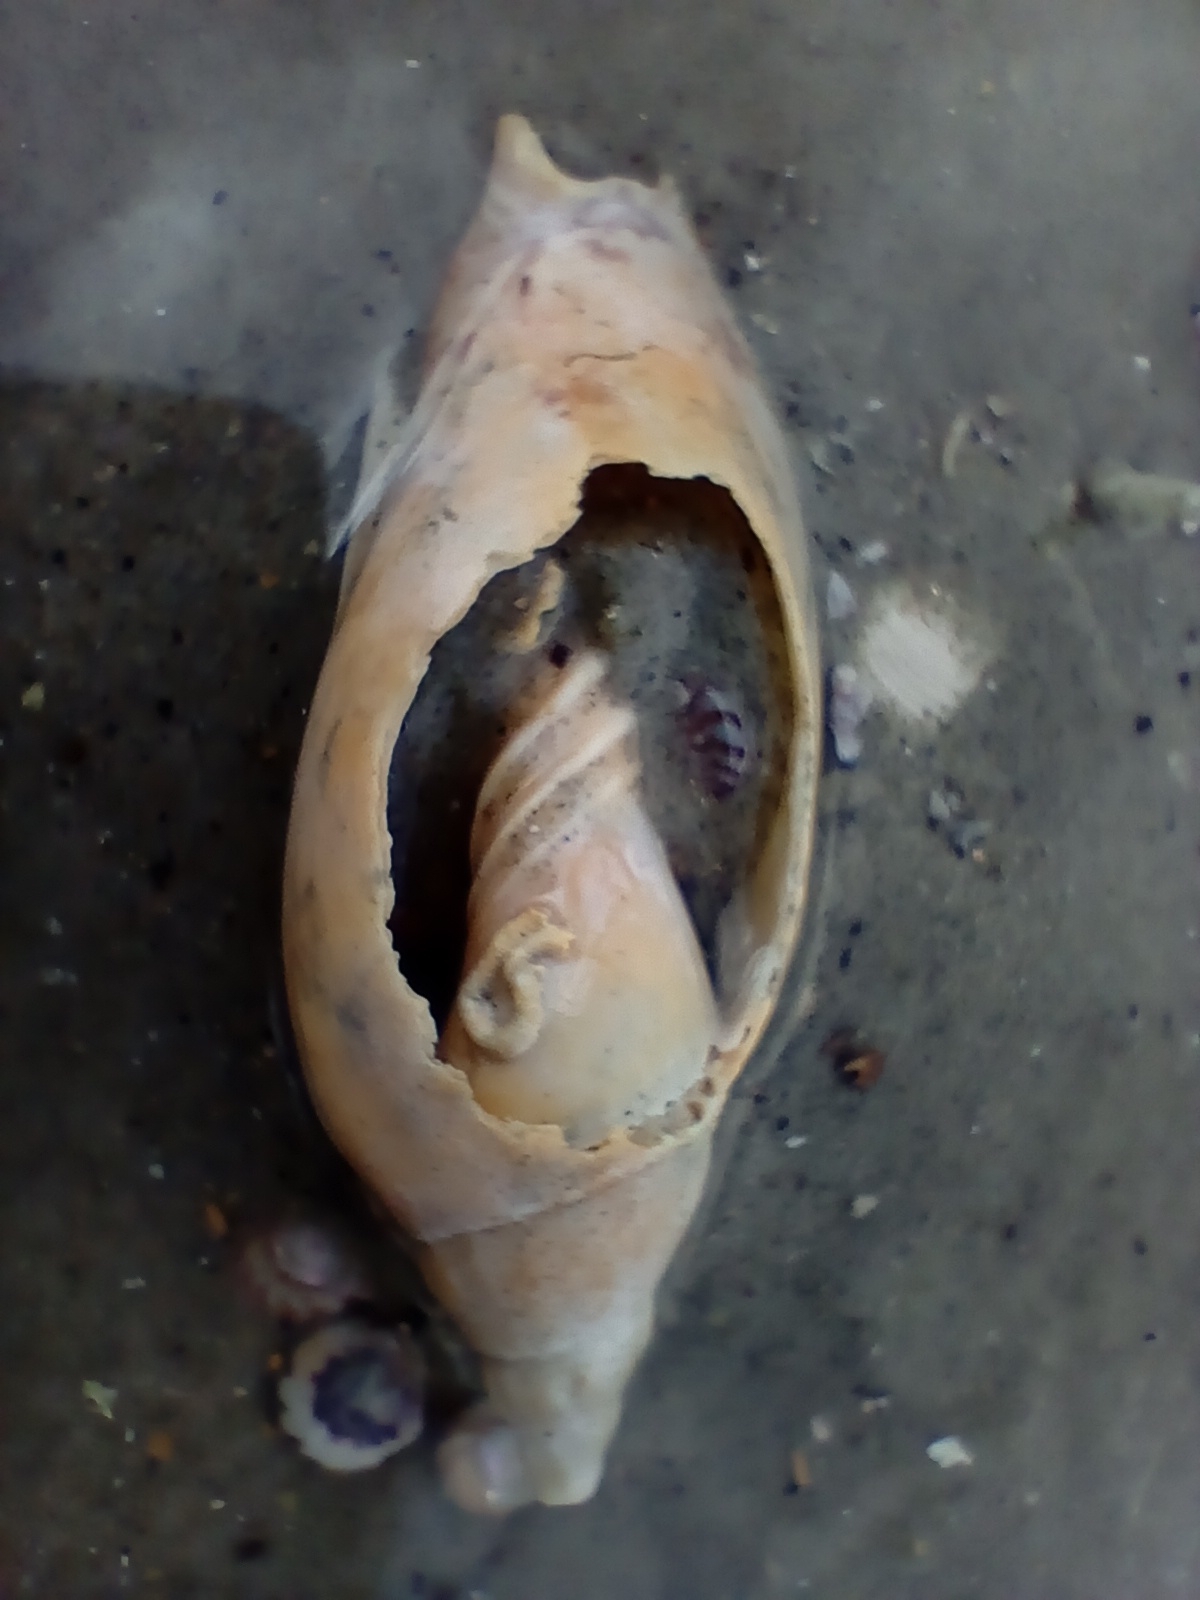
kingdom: Animalia
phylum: Mollusca
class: Gastropoda
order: Neogastropoda
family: Volutidae
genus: Alcithoe
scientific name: Alcithoe arabica
